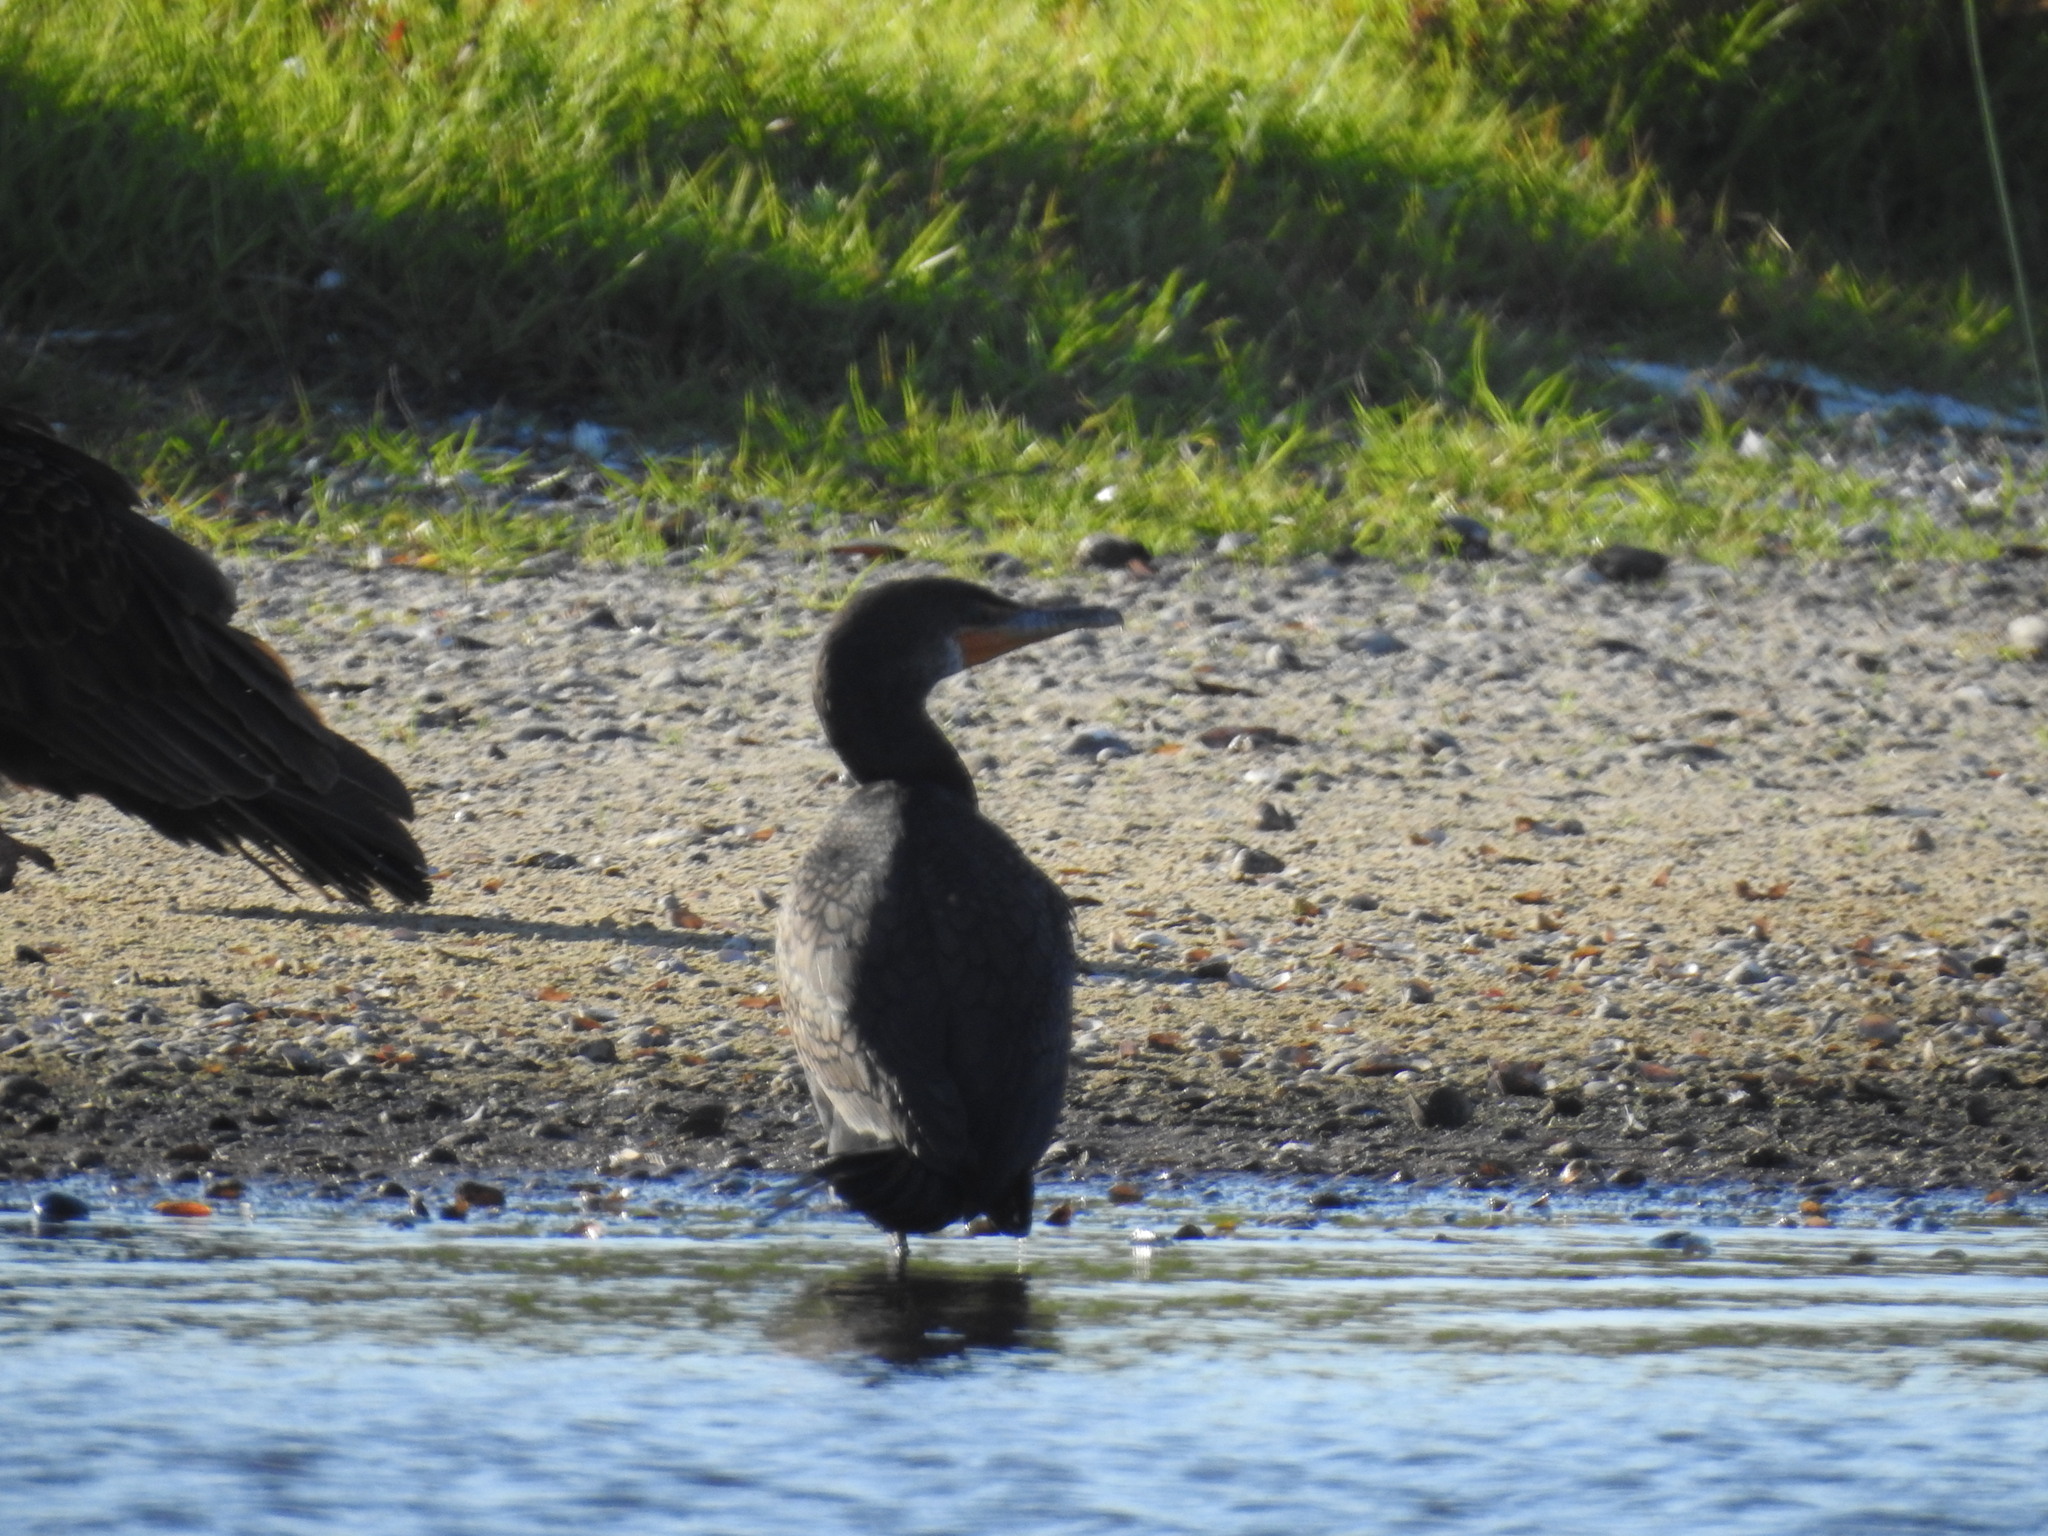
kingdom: Animalia
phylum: Chordata
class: Aves
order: Suliformes
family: Phalacrocoracidae
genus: Phalacrocorax
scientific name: Phalacrocorax auritus
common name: Double-crested cormorant
